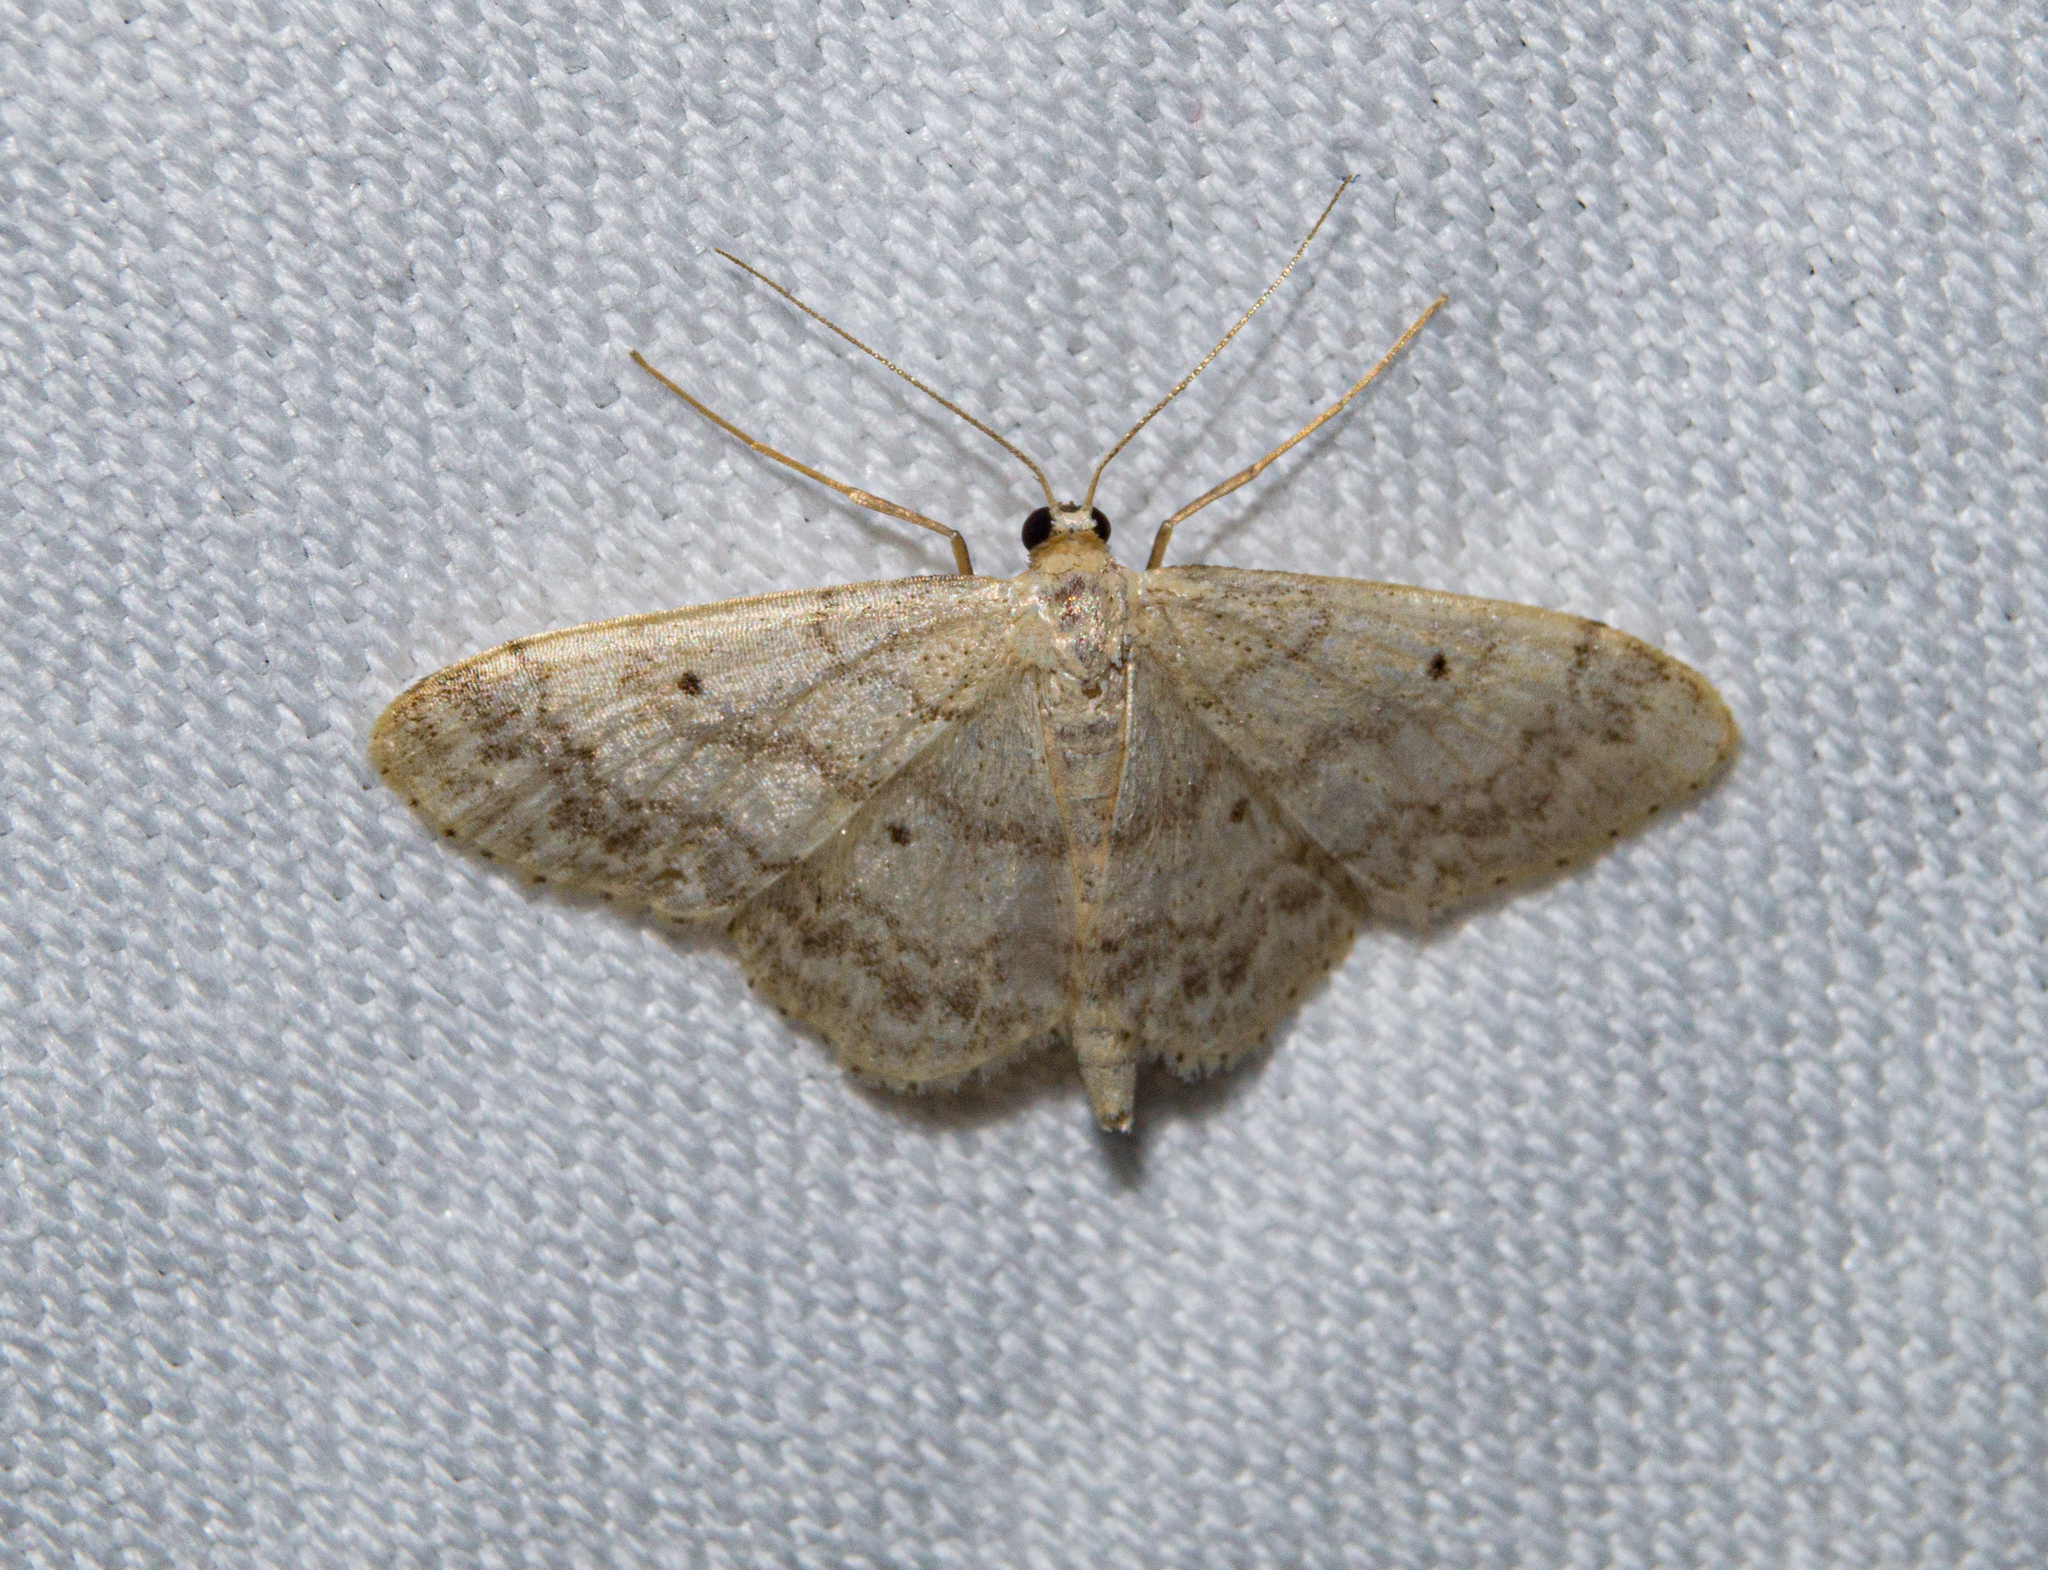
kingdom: Animalia
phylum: Arthropoda
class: Insecta
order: Lepidoptera
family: Geometridae
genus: Idaea
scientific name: Idaea biselata
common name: Small fan-footed wave
